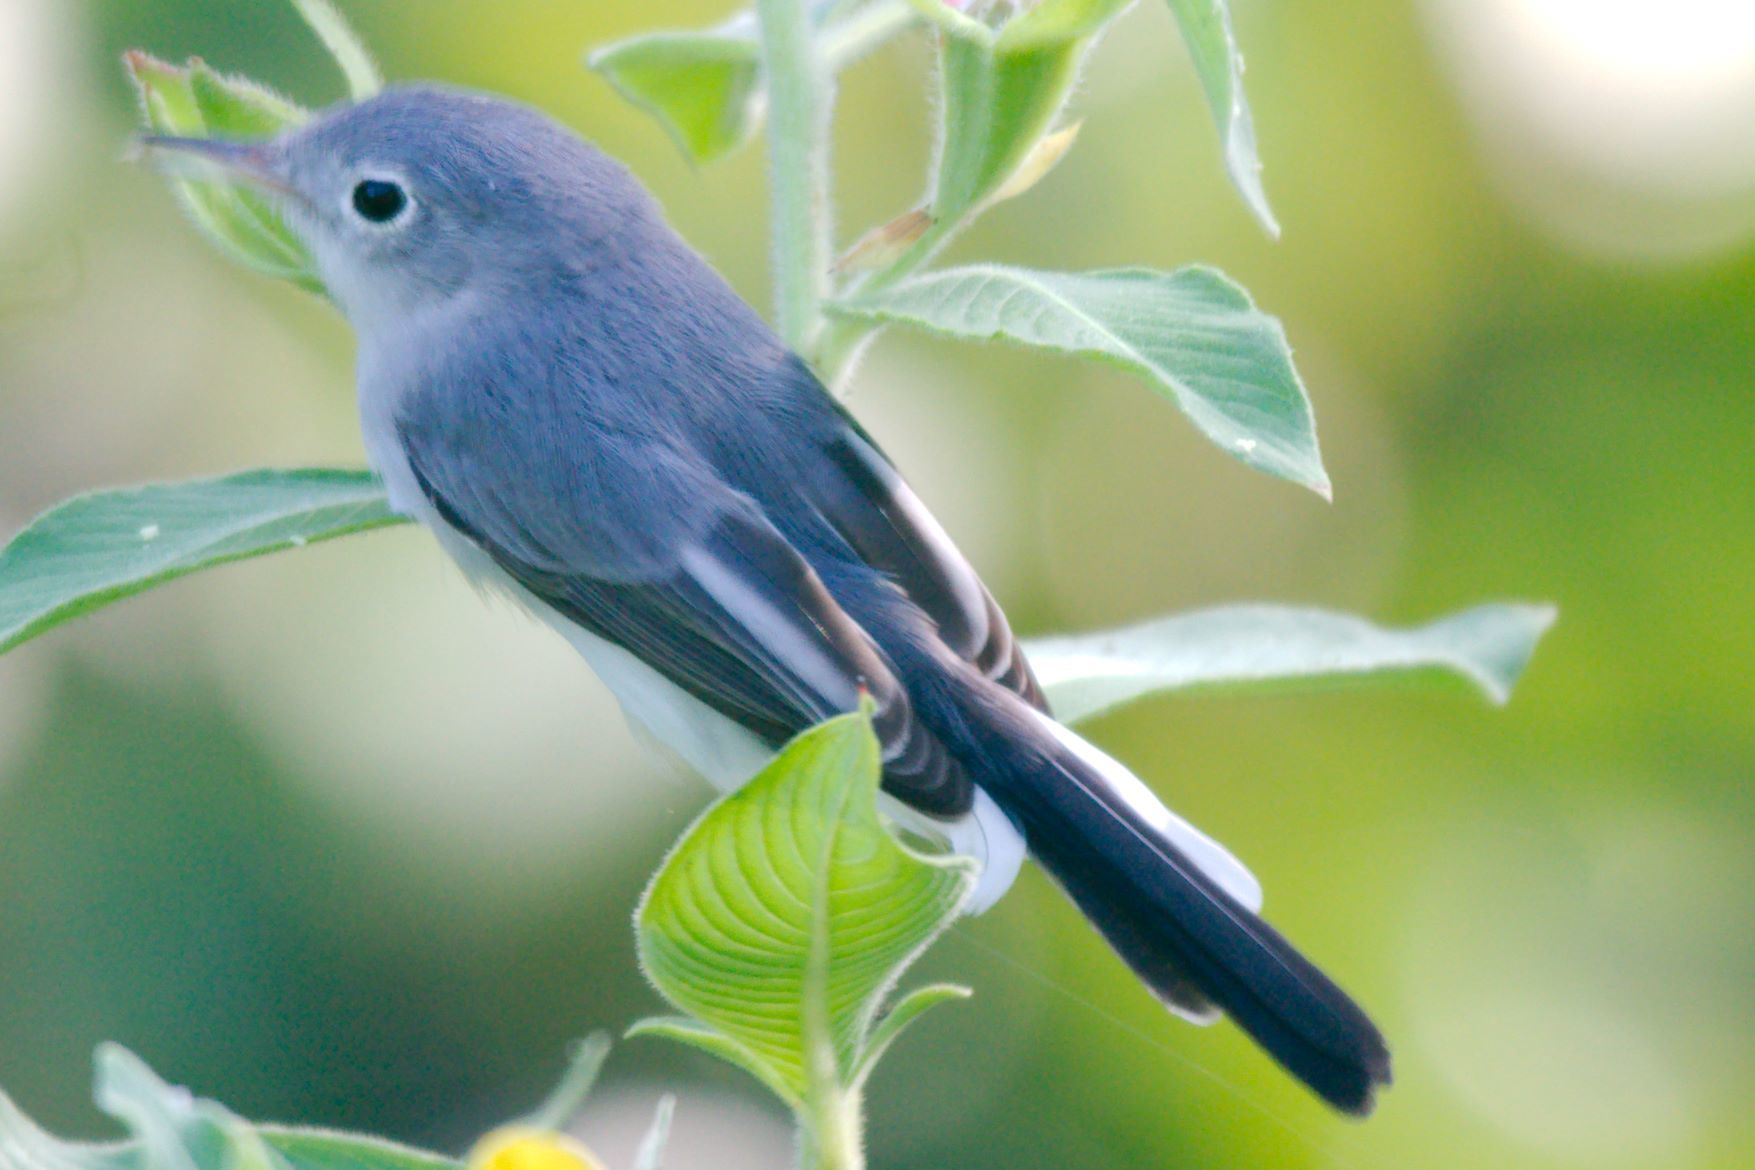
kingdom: Animalia
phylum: Chordata
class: Aves
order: Passeriformes
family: Polioptilidae
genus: Polioptila
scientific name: Polioptila caerulea
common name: Blue-gray gnatcatcher
